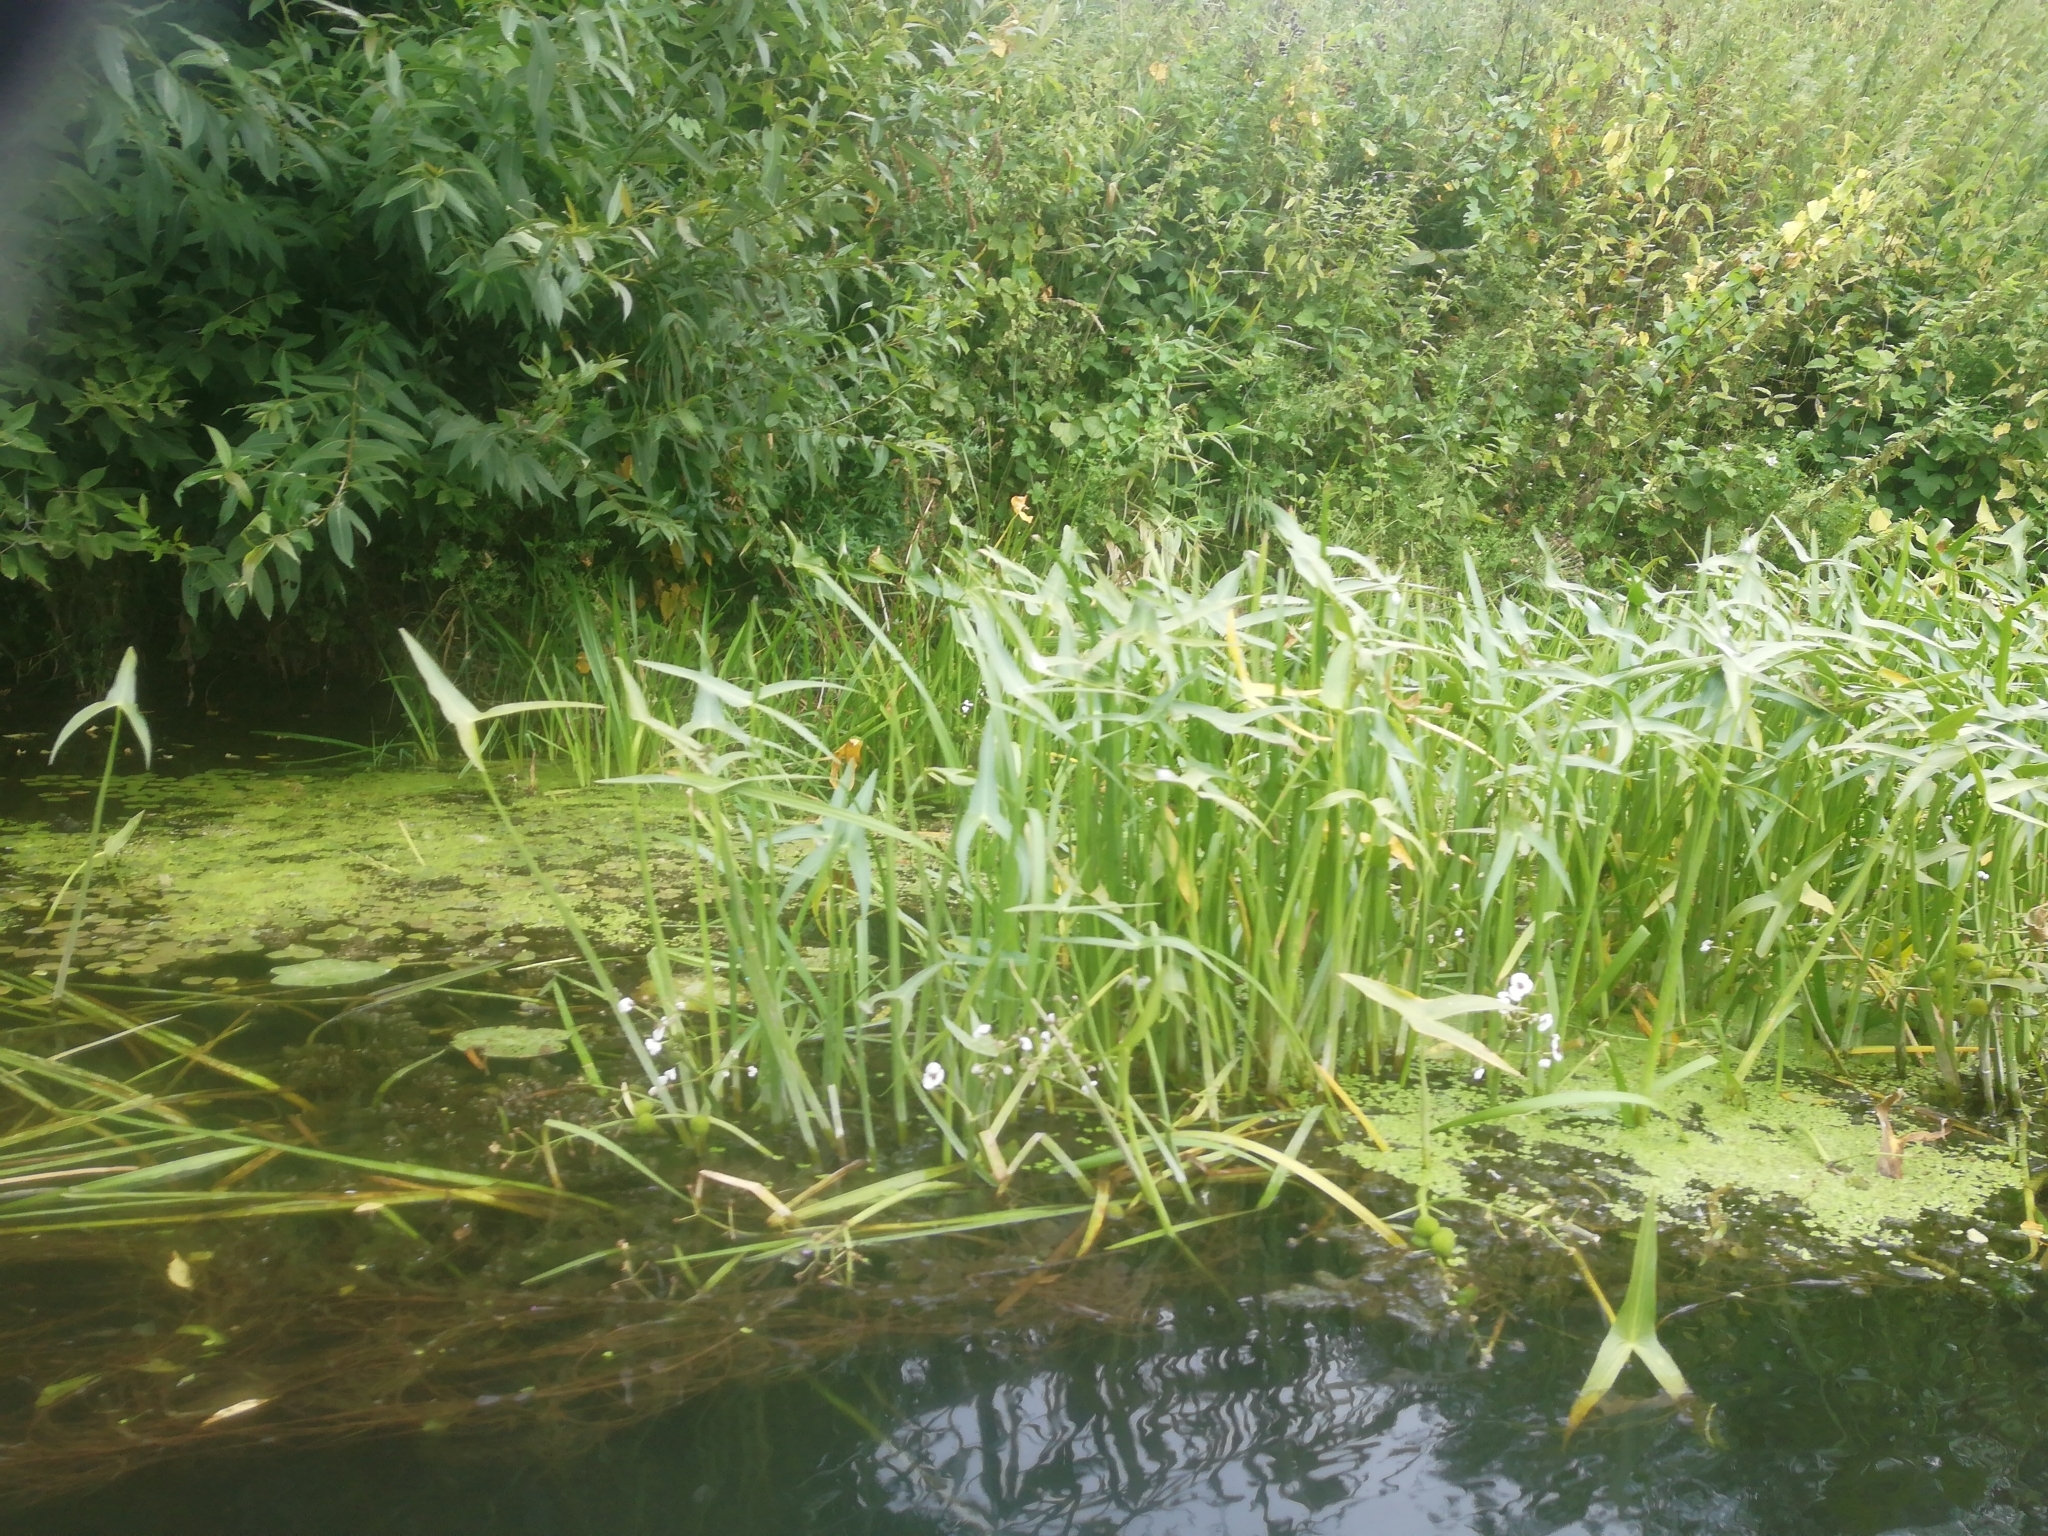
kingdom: Plantae
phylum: Tracheophyta
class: Liliopsida
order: Alismatales
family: Alismataceae
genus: Sagittaria
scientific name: Sagittaria sagittifolia
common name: Arrowhead
